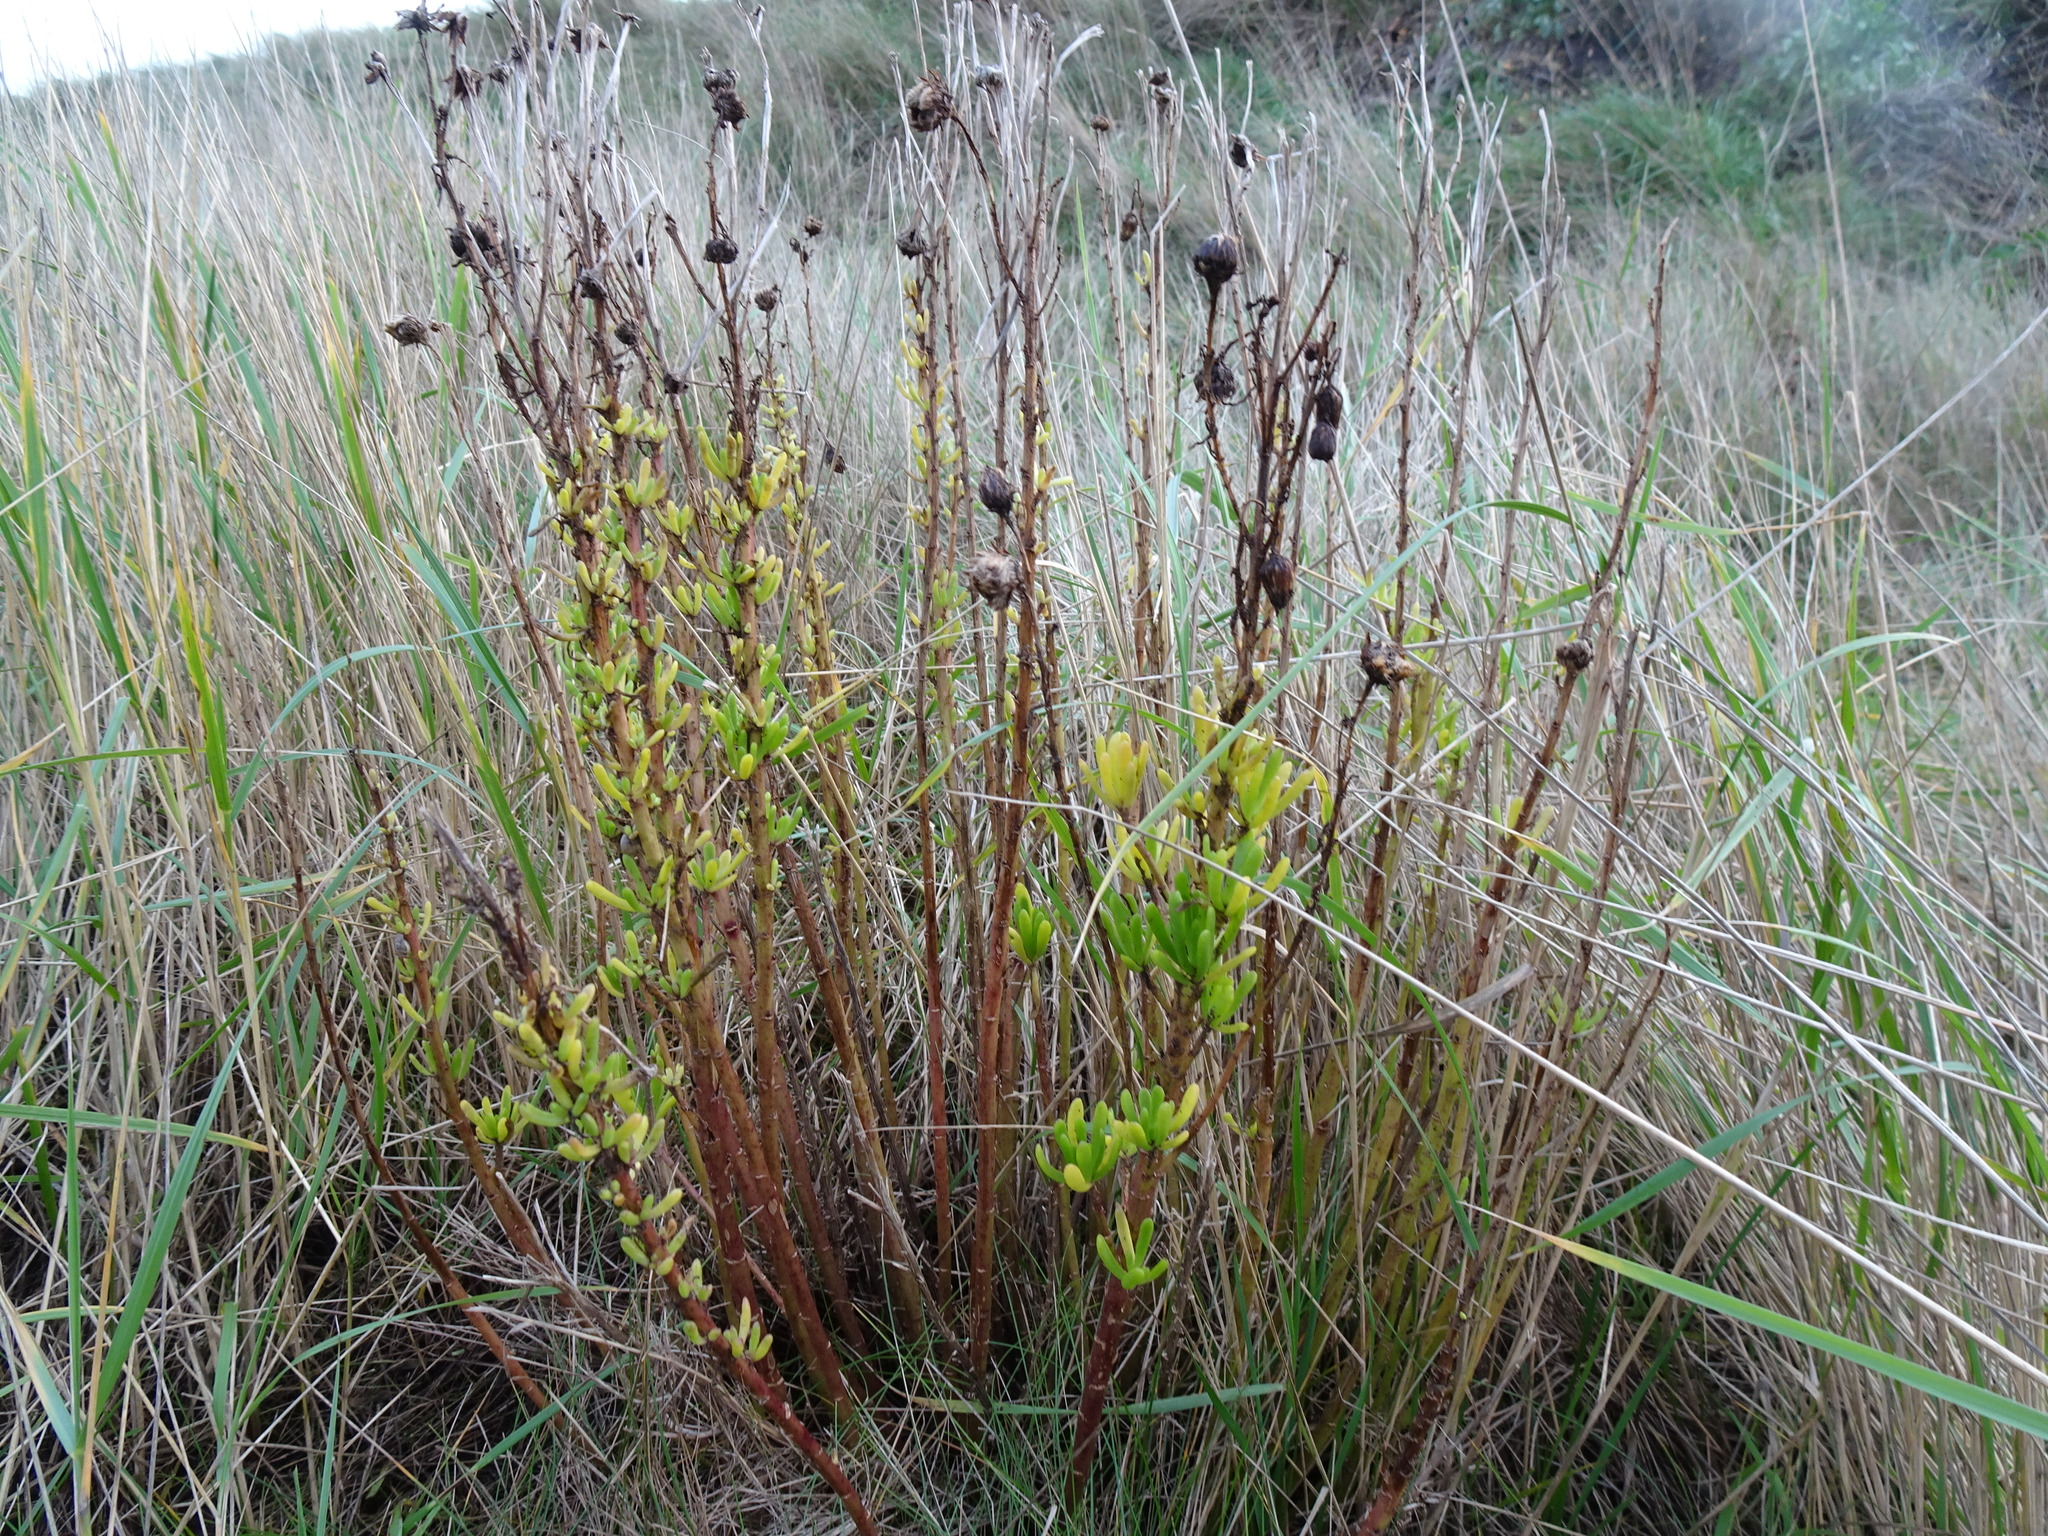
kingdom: Plantae
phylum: Tracheophyta
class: Magnoliopsida
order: Asterales
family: Asteraceae
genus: Limbarda
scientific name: Limbarda crithmoides
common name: Golden samphire
